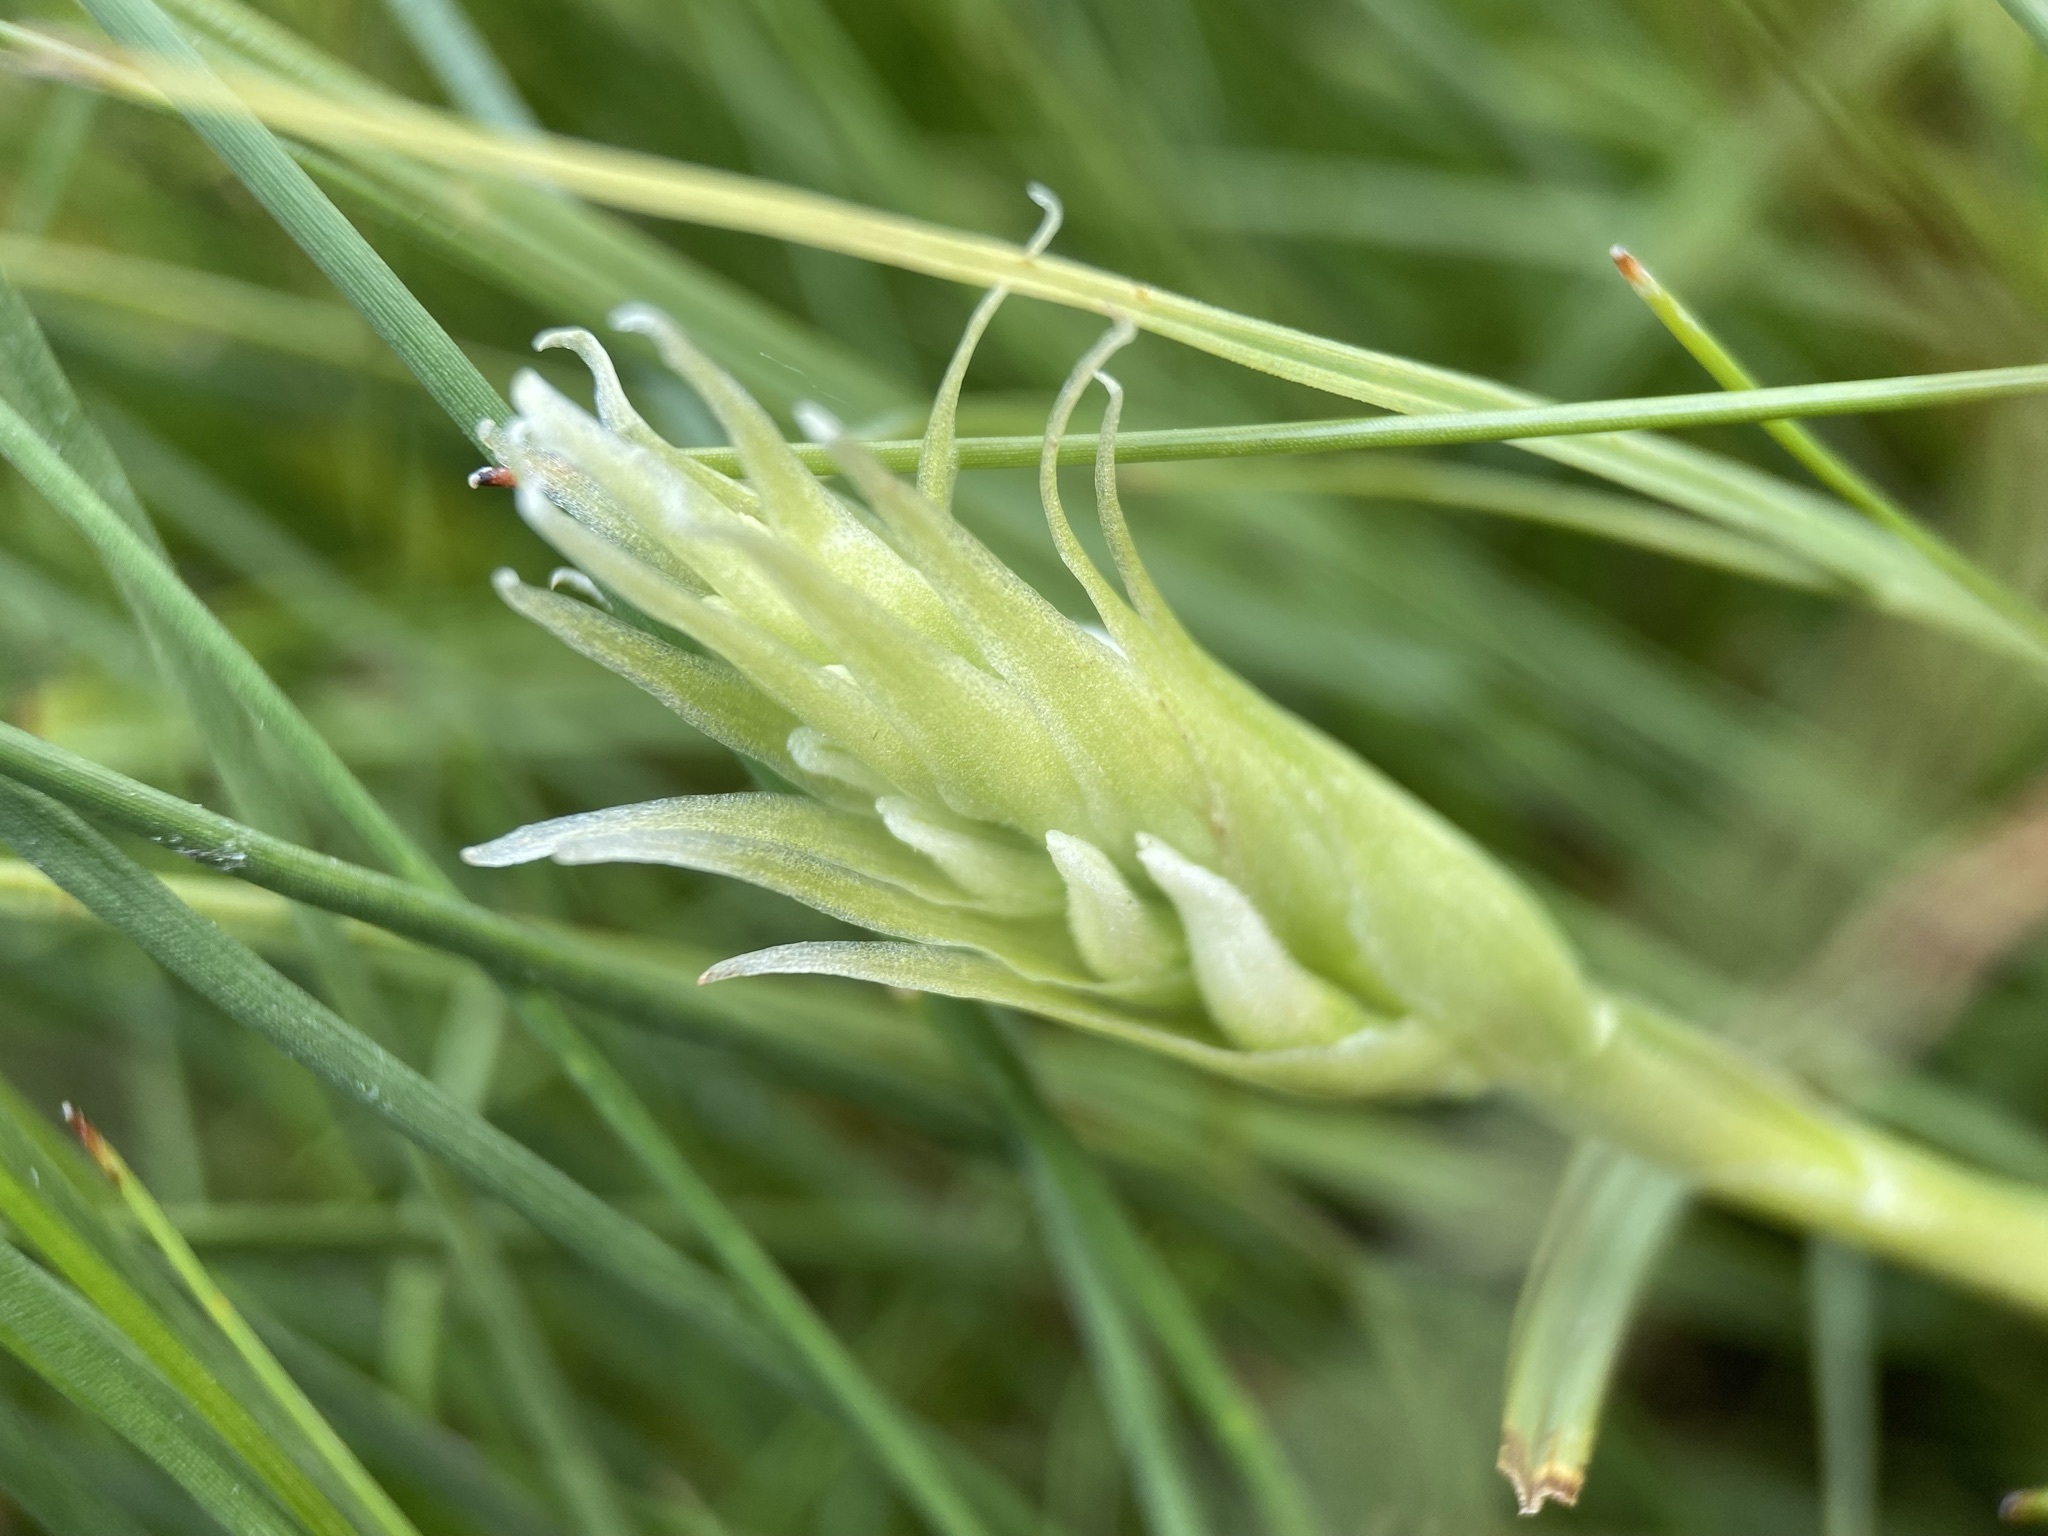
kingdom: Plantae
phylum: Tracheophyta
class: Liliopsida
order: Asparagales
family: Orchidaceae
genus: Spiranthes
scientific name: Spiranthes romanzoffiana
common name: Irish lady's-tresses
